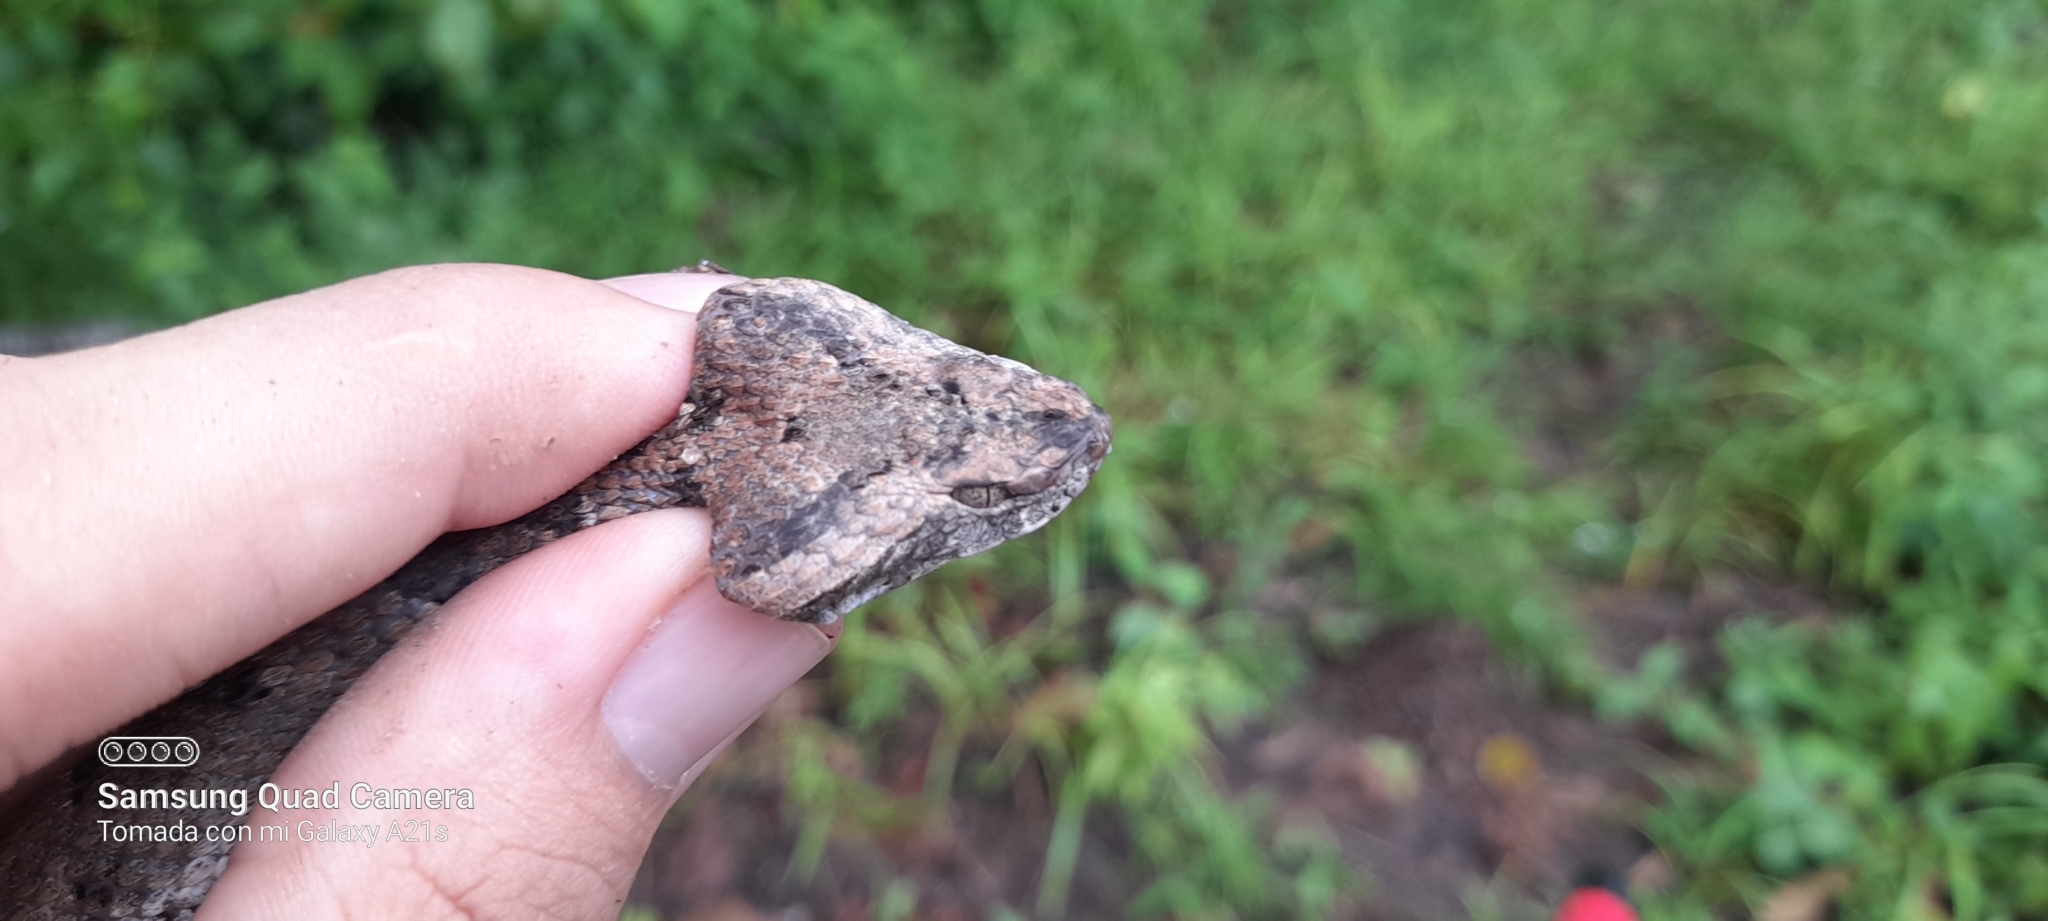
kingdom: Animalia
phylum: Chordata
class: Squamata
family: Viperidae
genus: Porthidium
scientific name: Porthidium lansbergii
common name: Lansberg's hognosed pit viper
